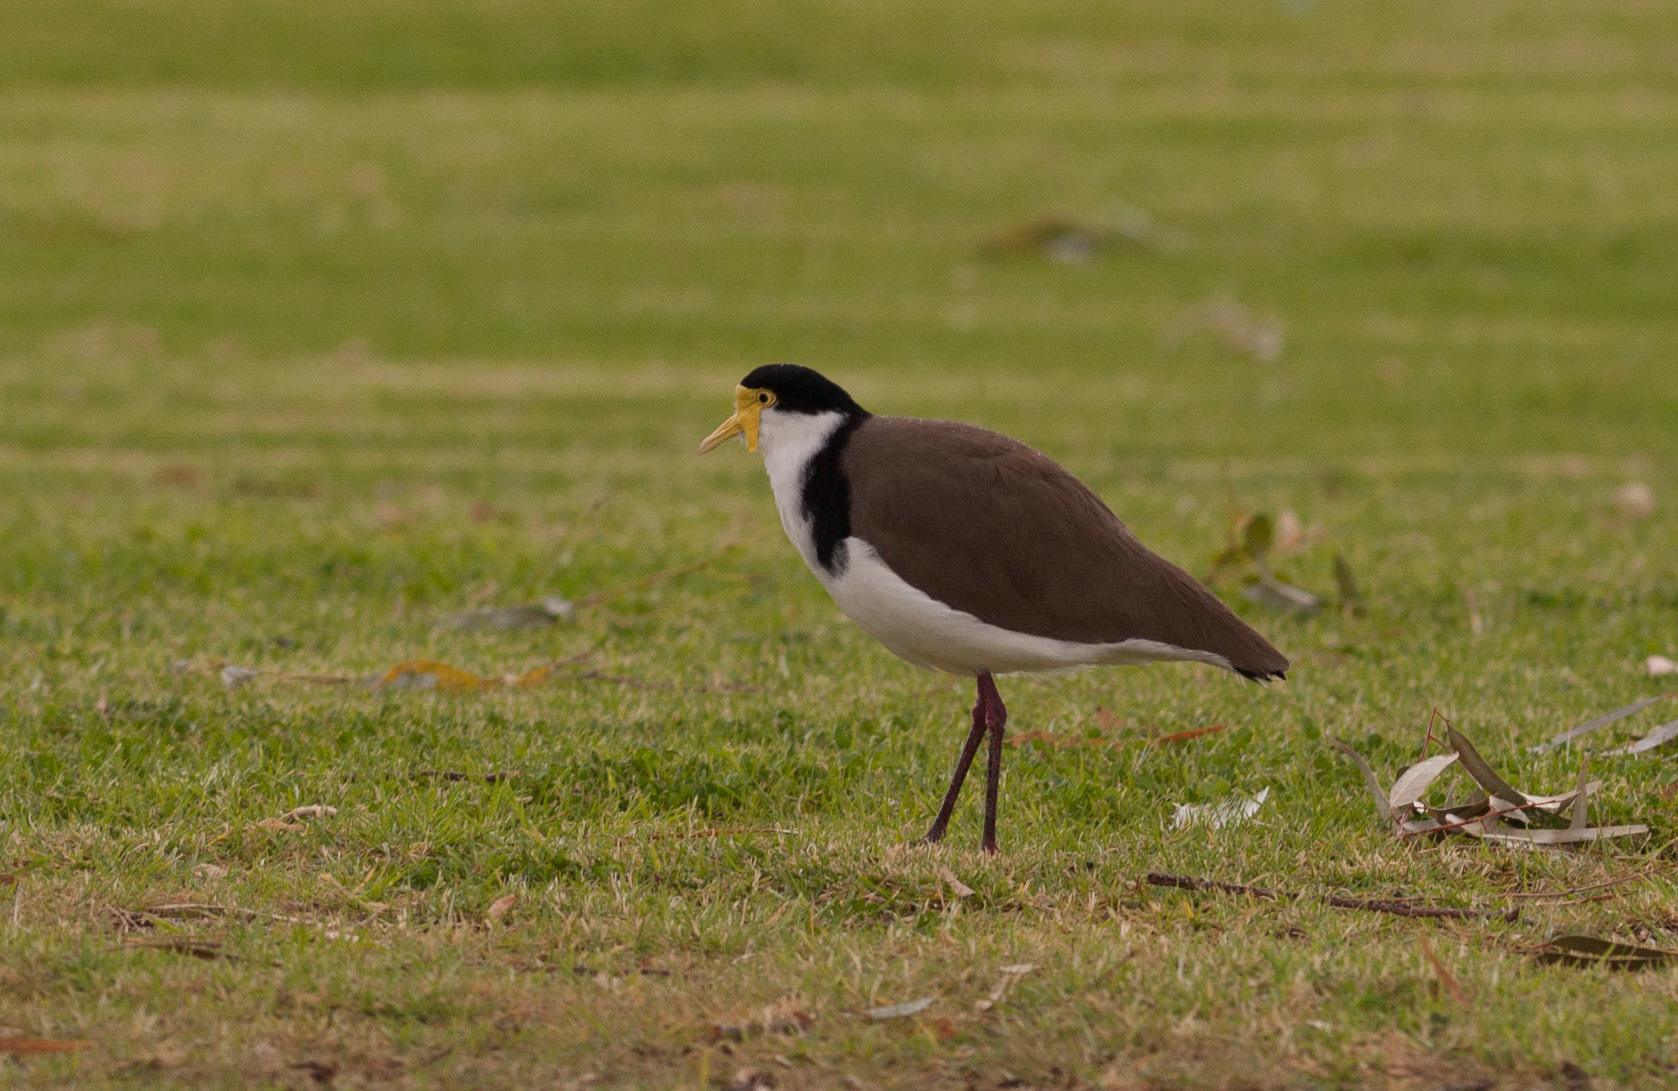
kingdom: Animalia
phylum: Chordata
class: Aves
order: Charadriiformes
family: Charadriidae
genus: Vanellus
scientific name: Vanellus miles
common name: Masked lapwing
